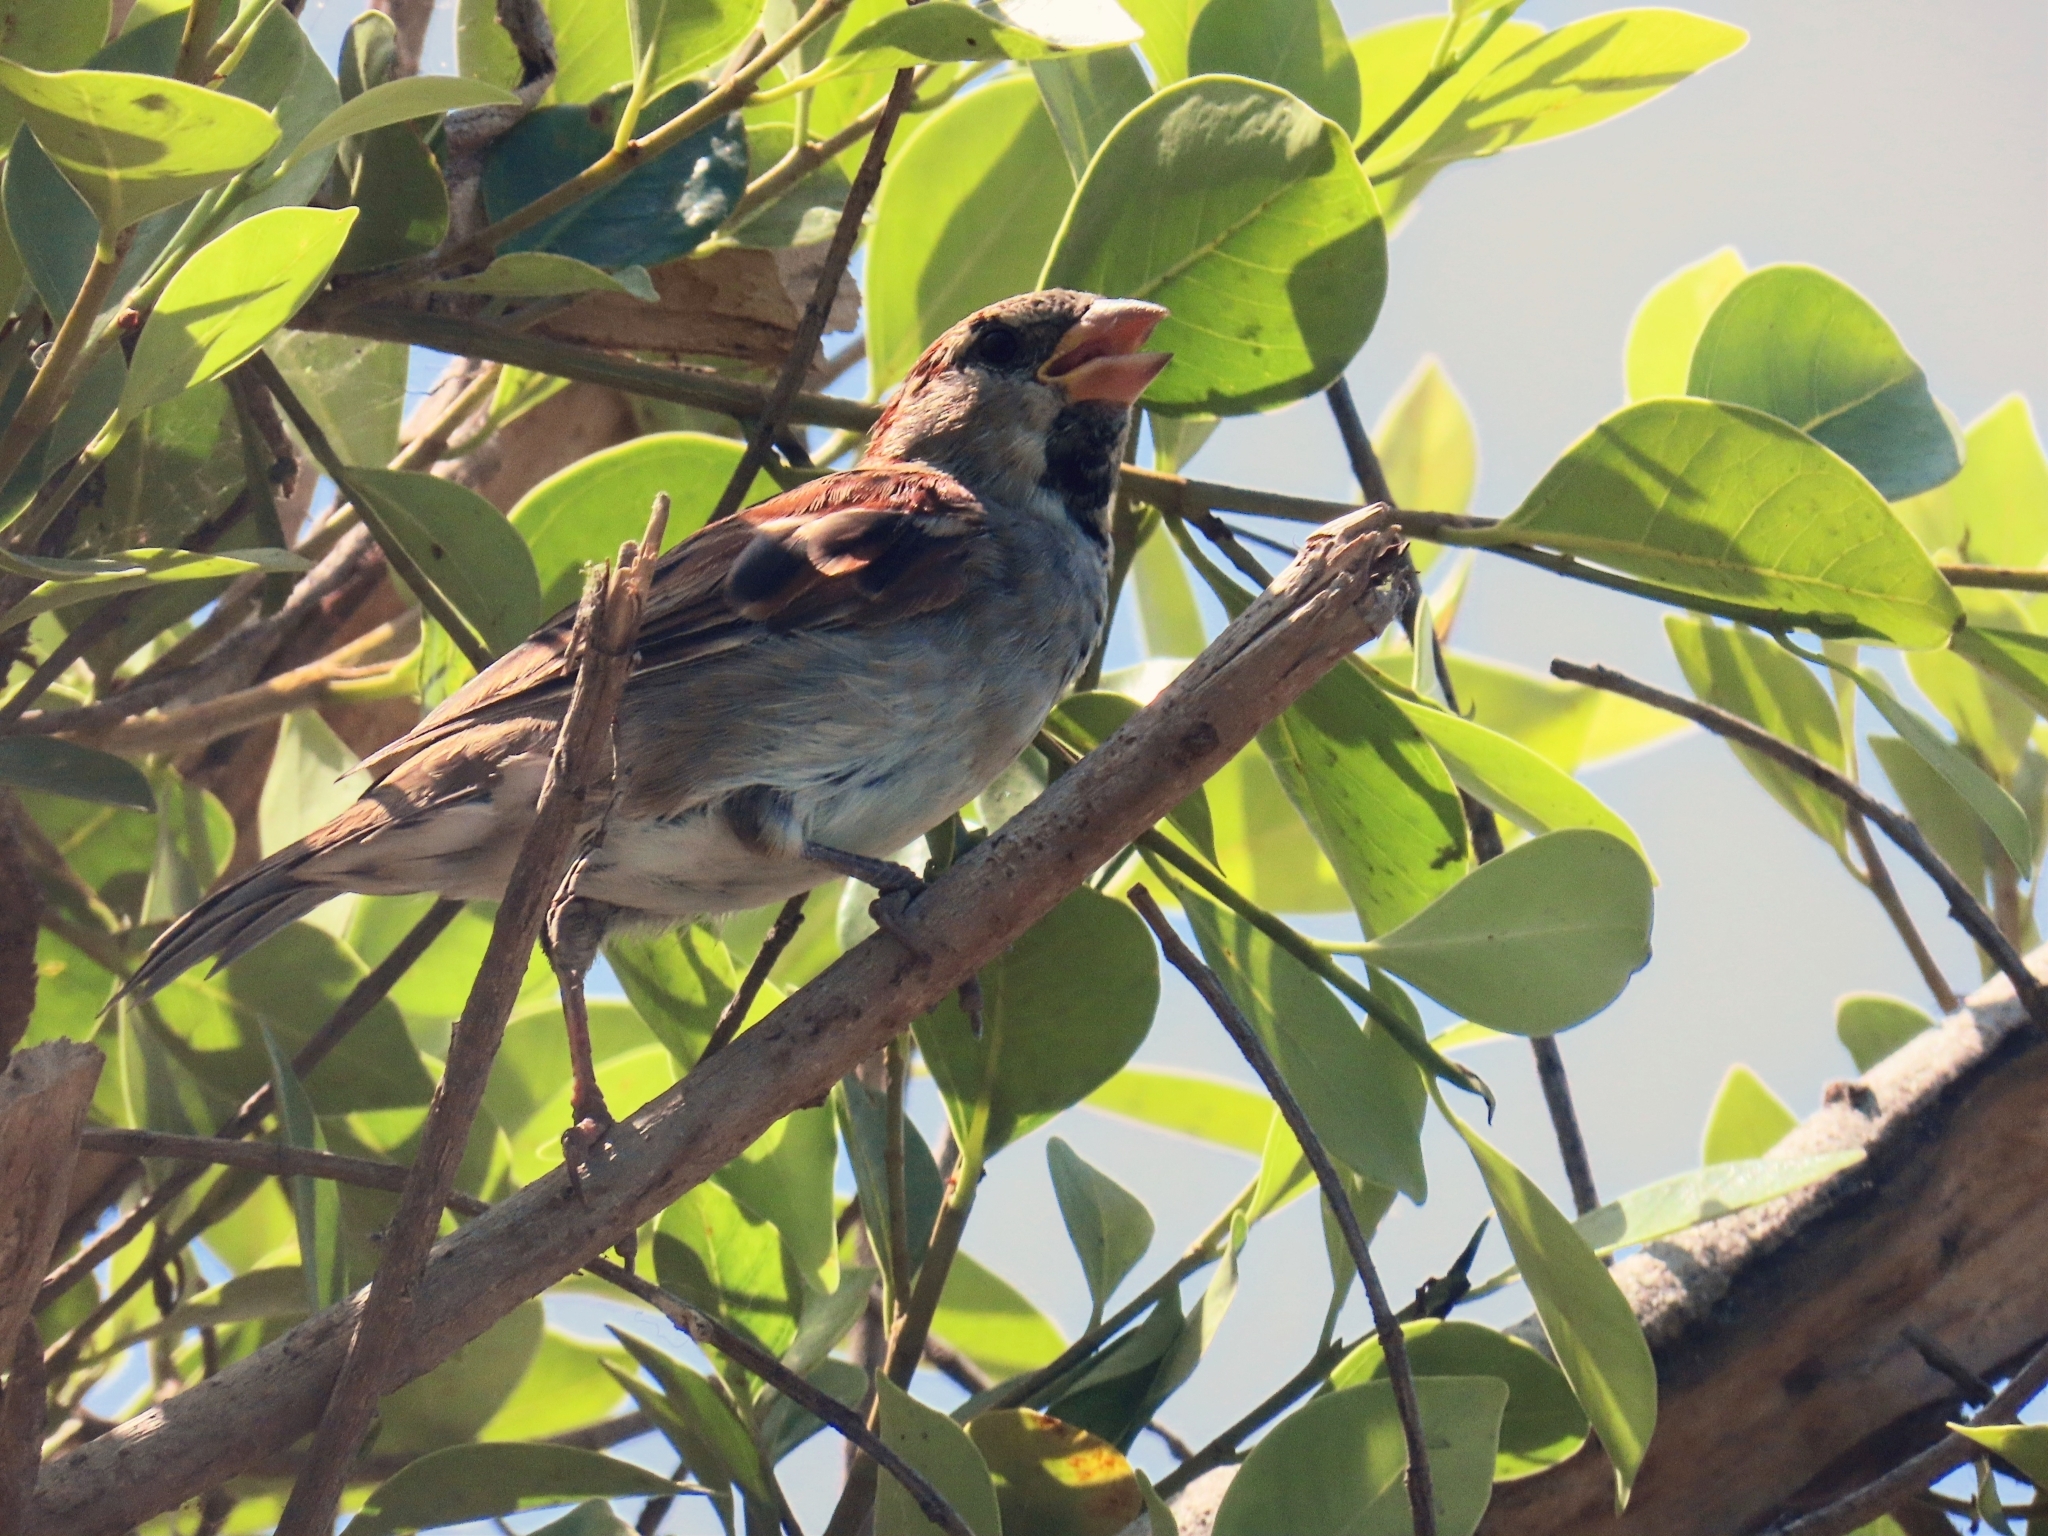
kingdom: Animalia
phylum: Chordata
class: Aves
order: Passeriformes
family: Passeridae
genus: Passer
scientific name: Passer domesticus
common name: House sparrow
